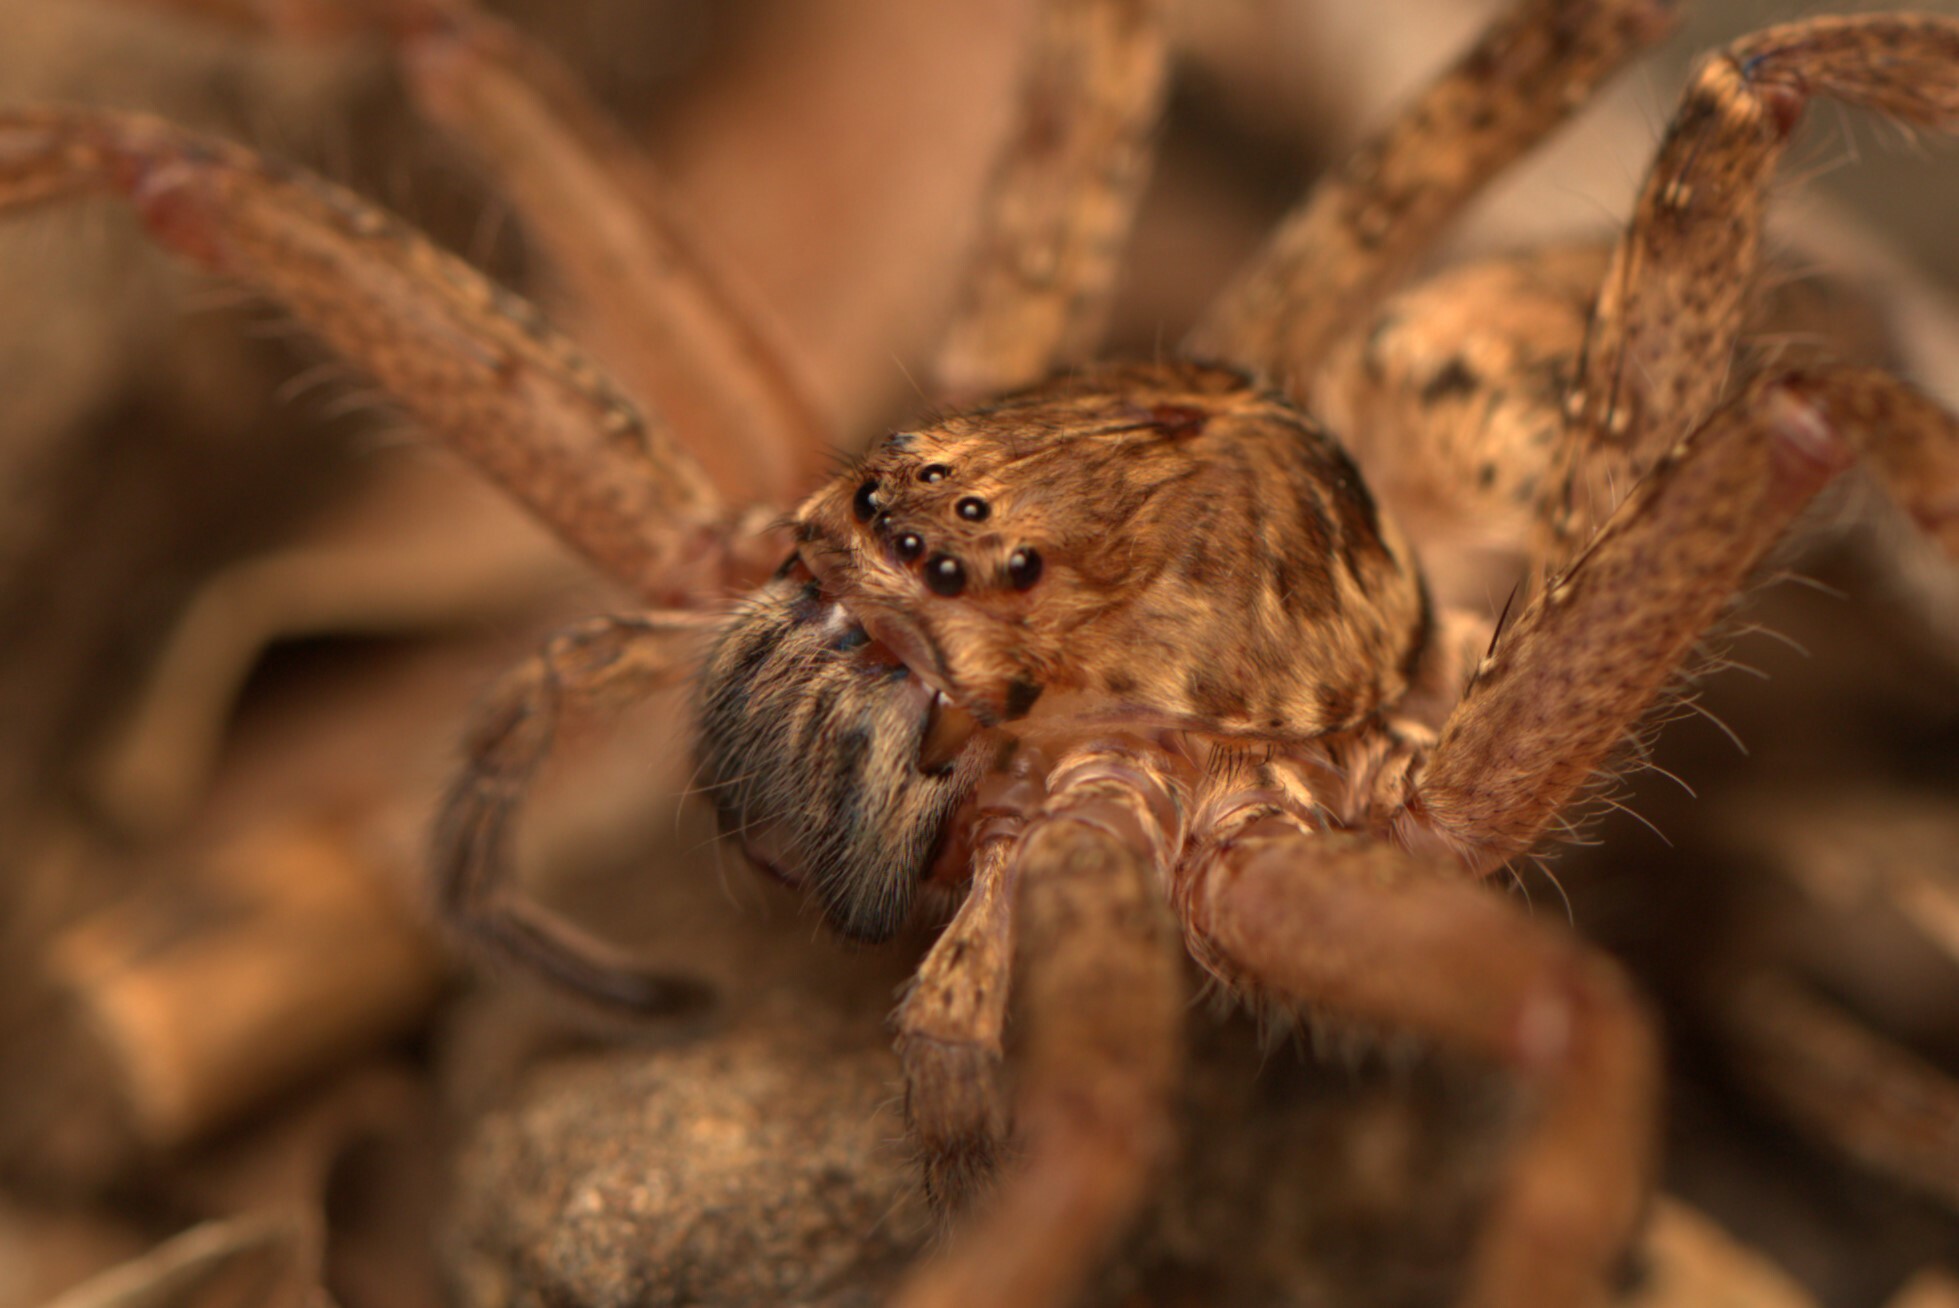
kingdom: Animalia
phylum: Arthropoda
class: Arachnida
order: Araneae
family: Sparassidae
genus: Heteropoda
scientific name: Heteropoda jugulans
